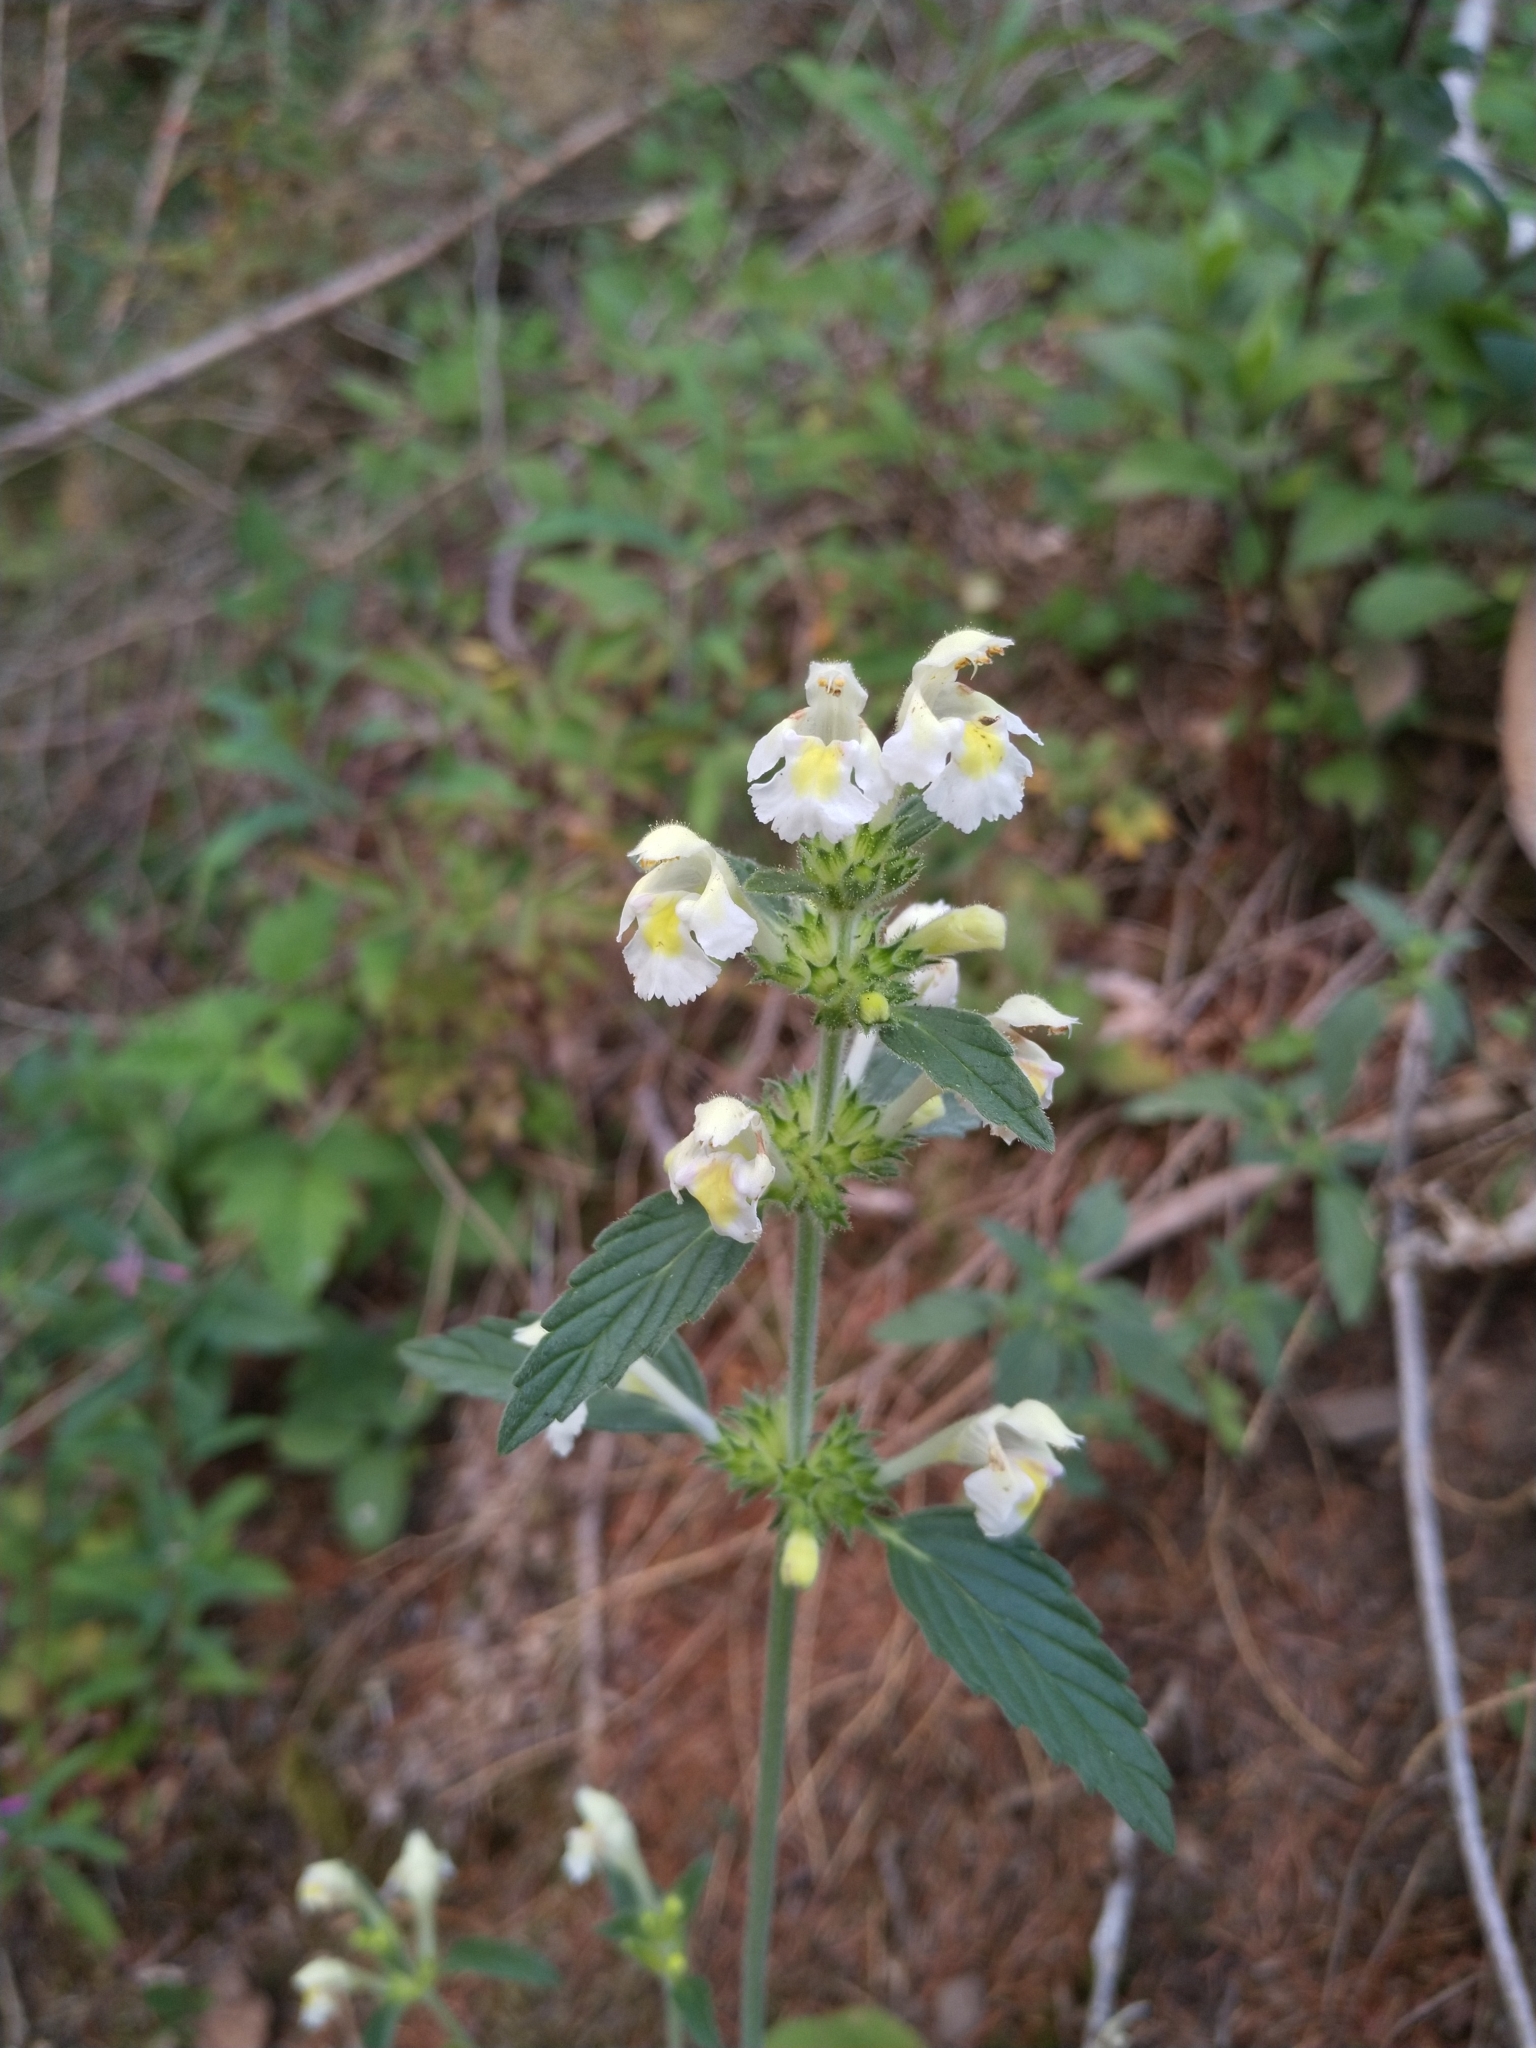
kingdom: Plantae
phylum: Tracheophyta
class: Magnoliopsida
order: Lamiales
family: Lamiaceae
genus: Galeopsis
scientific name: Galeopsis segetum
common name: Downy hemp-nettle
